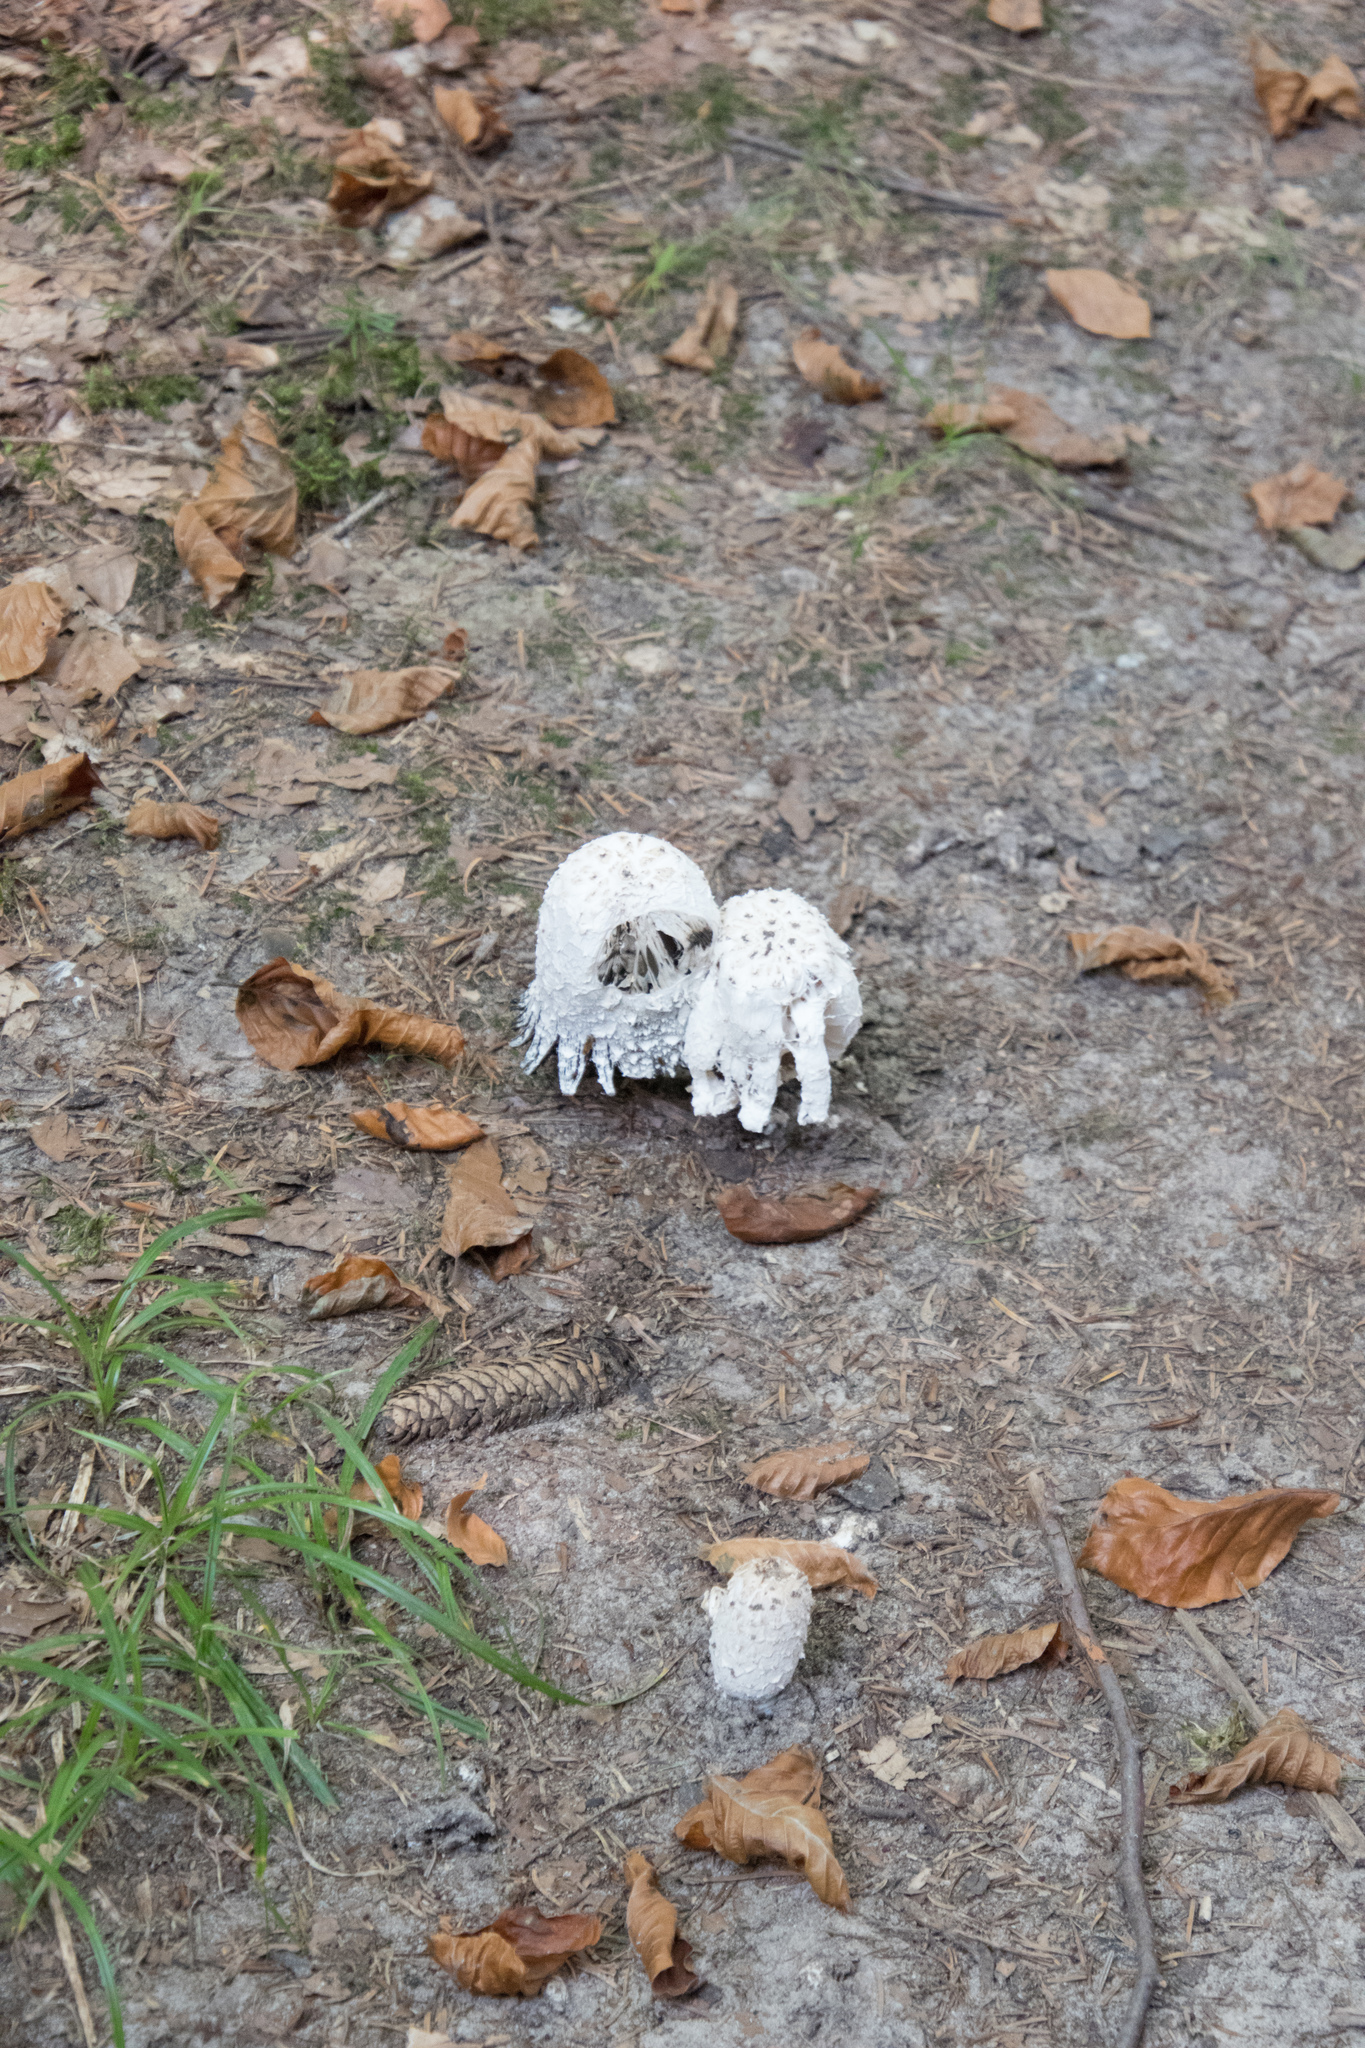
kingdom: Fungi
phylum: Basidiomycota
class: Agaricomycetes
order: Agaricales
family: Agaricaceae
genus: Coprinus
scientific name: Coprinus comatus
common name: Lawyer's wig
